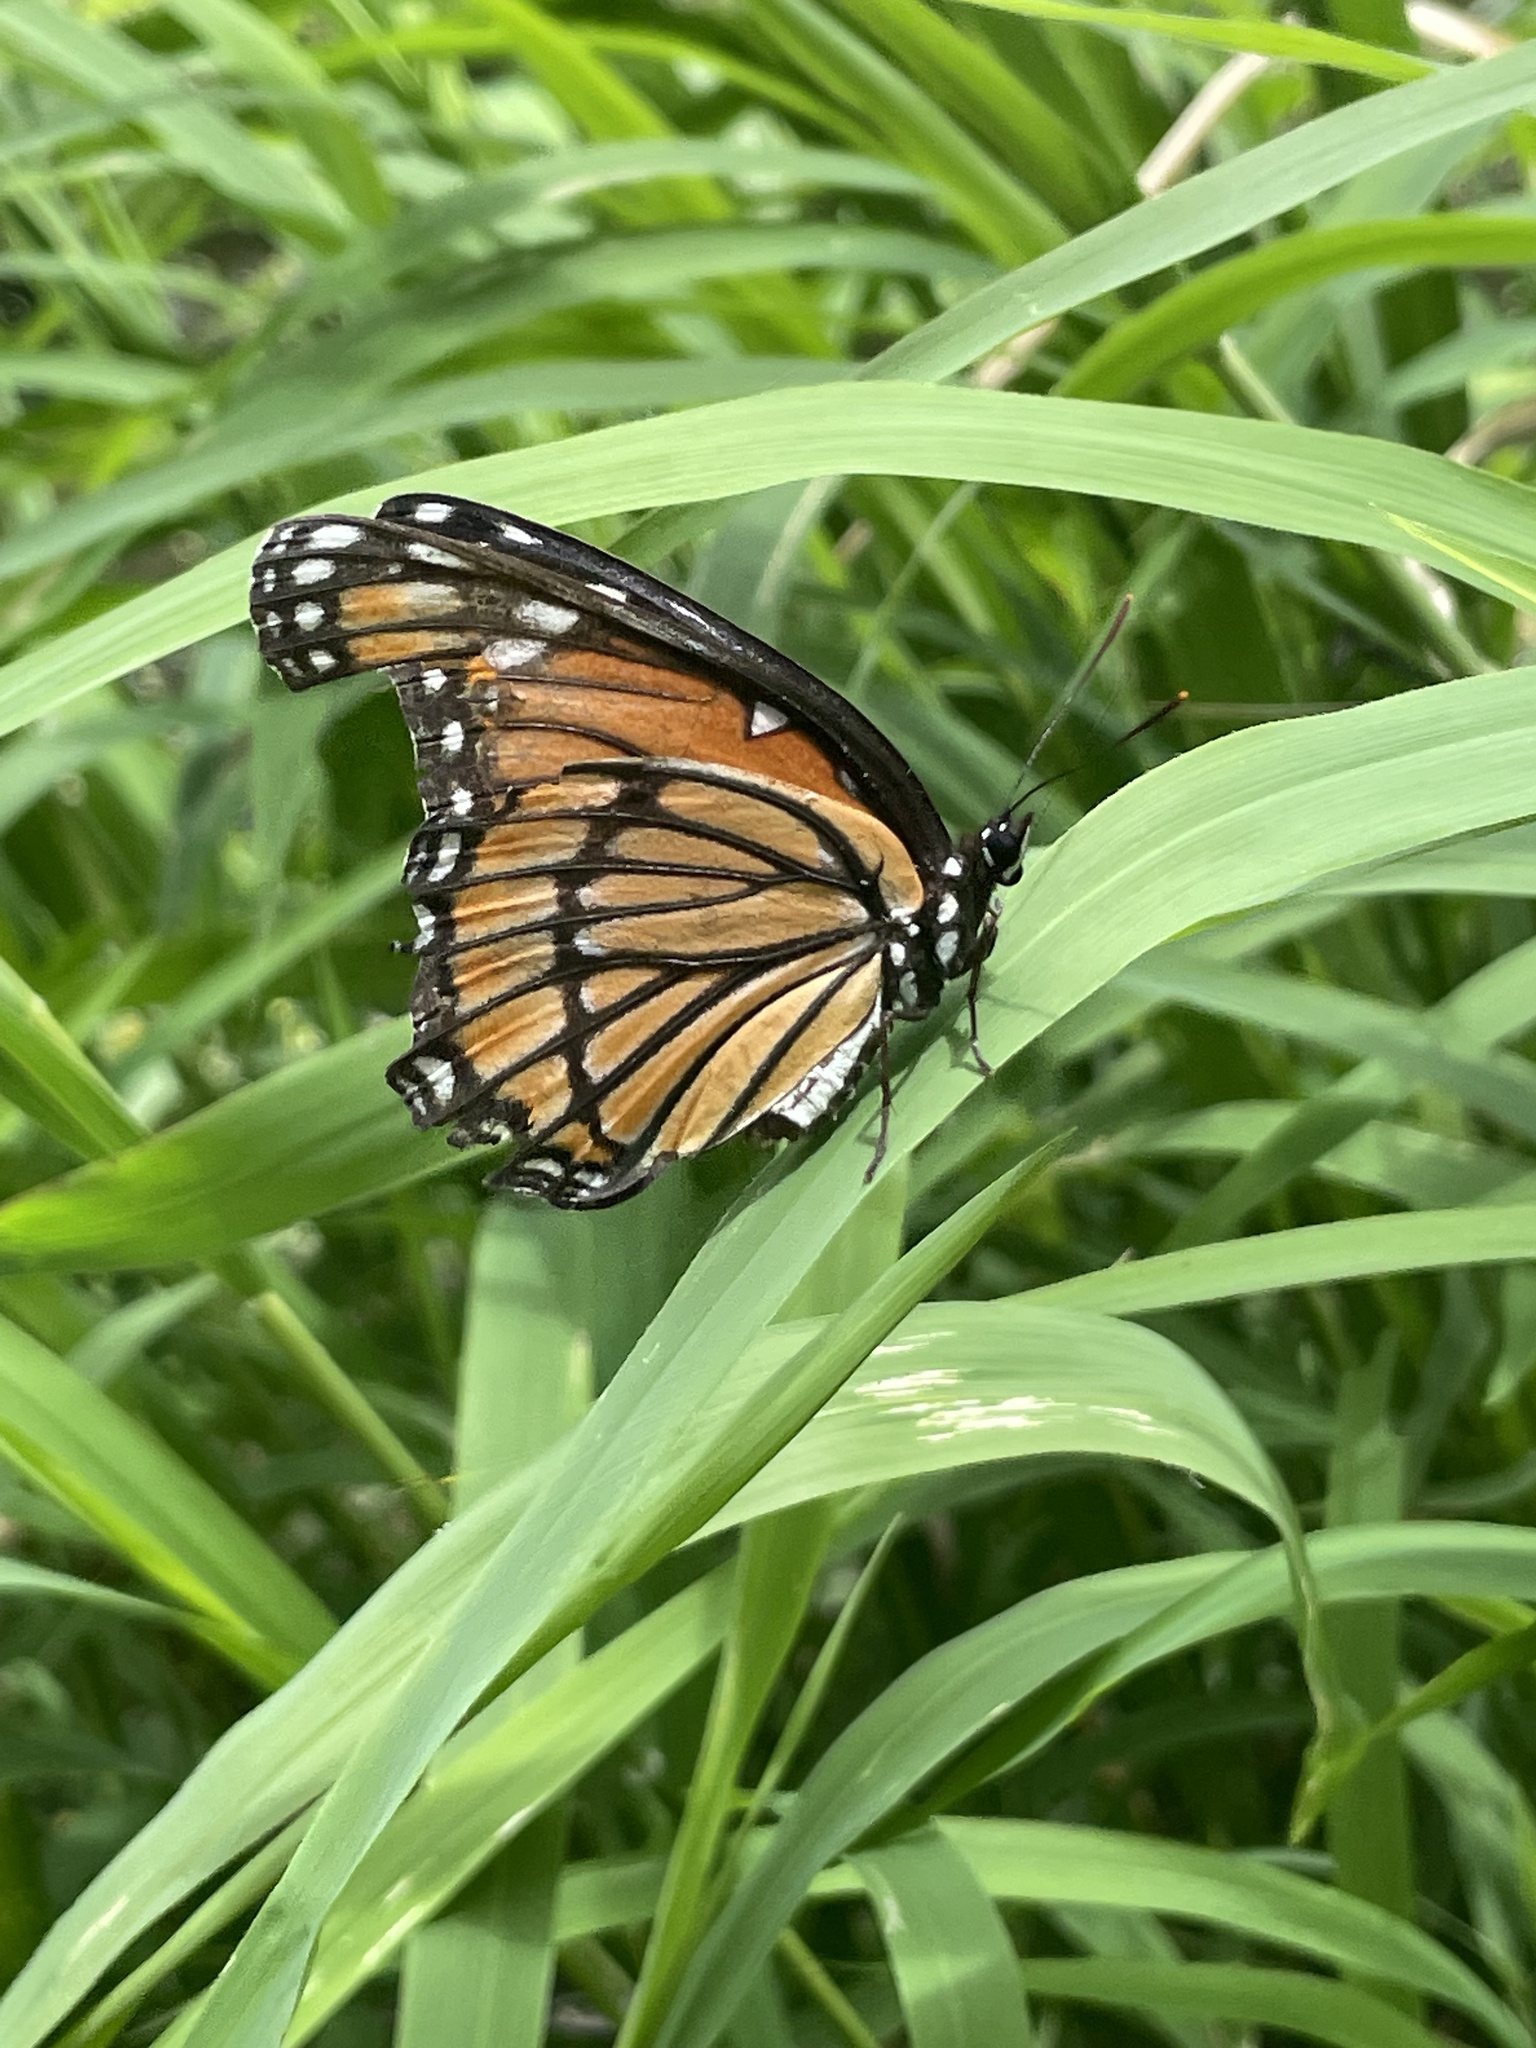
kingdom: Animalia
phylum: Arthropoda
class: Insecta
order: Lepidoptera
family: Nymphalidae
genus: Limenitis
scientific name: Limenitis archippus
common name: Viceroy
